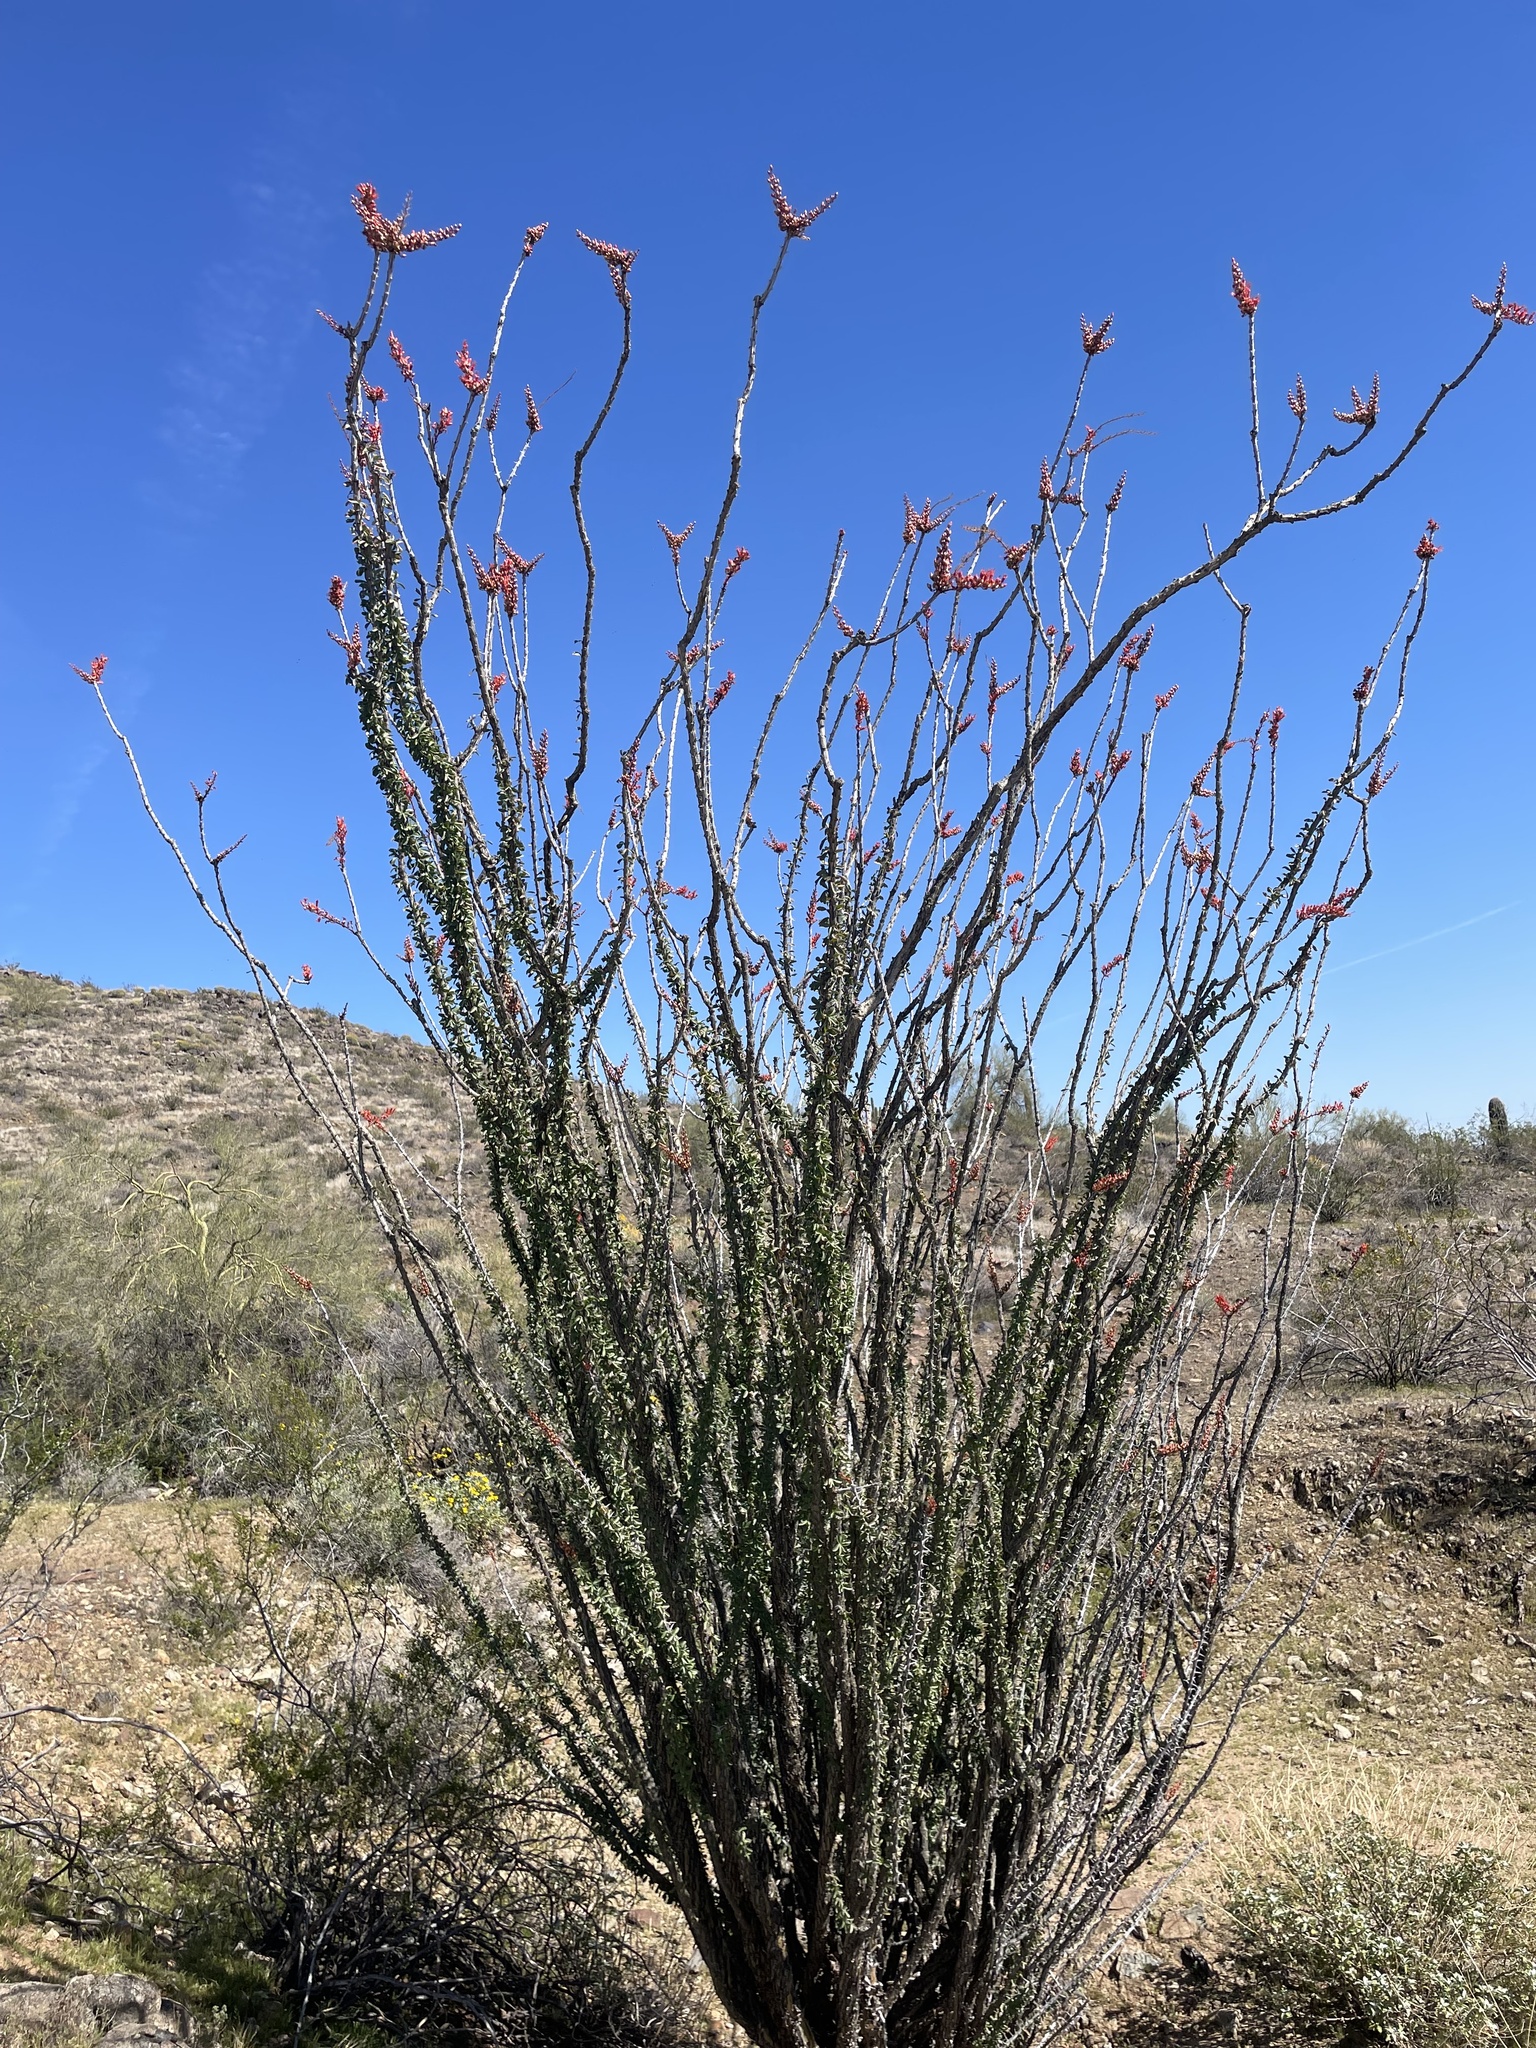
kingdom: Plantae
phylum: Tracheophyta
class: Magnoliopsida
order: Ericales
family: Fouquieriaceae
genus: Fouquieria
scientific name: Fouquieria splendens
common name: Vine-cactus
